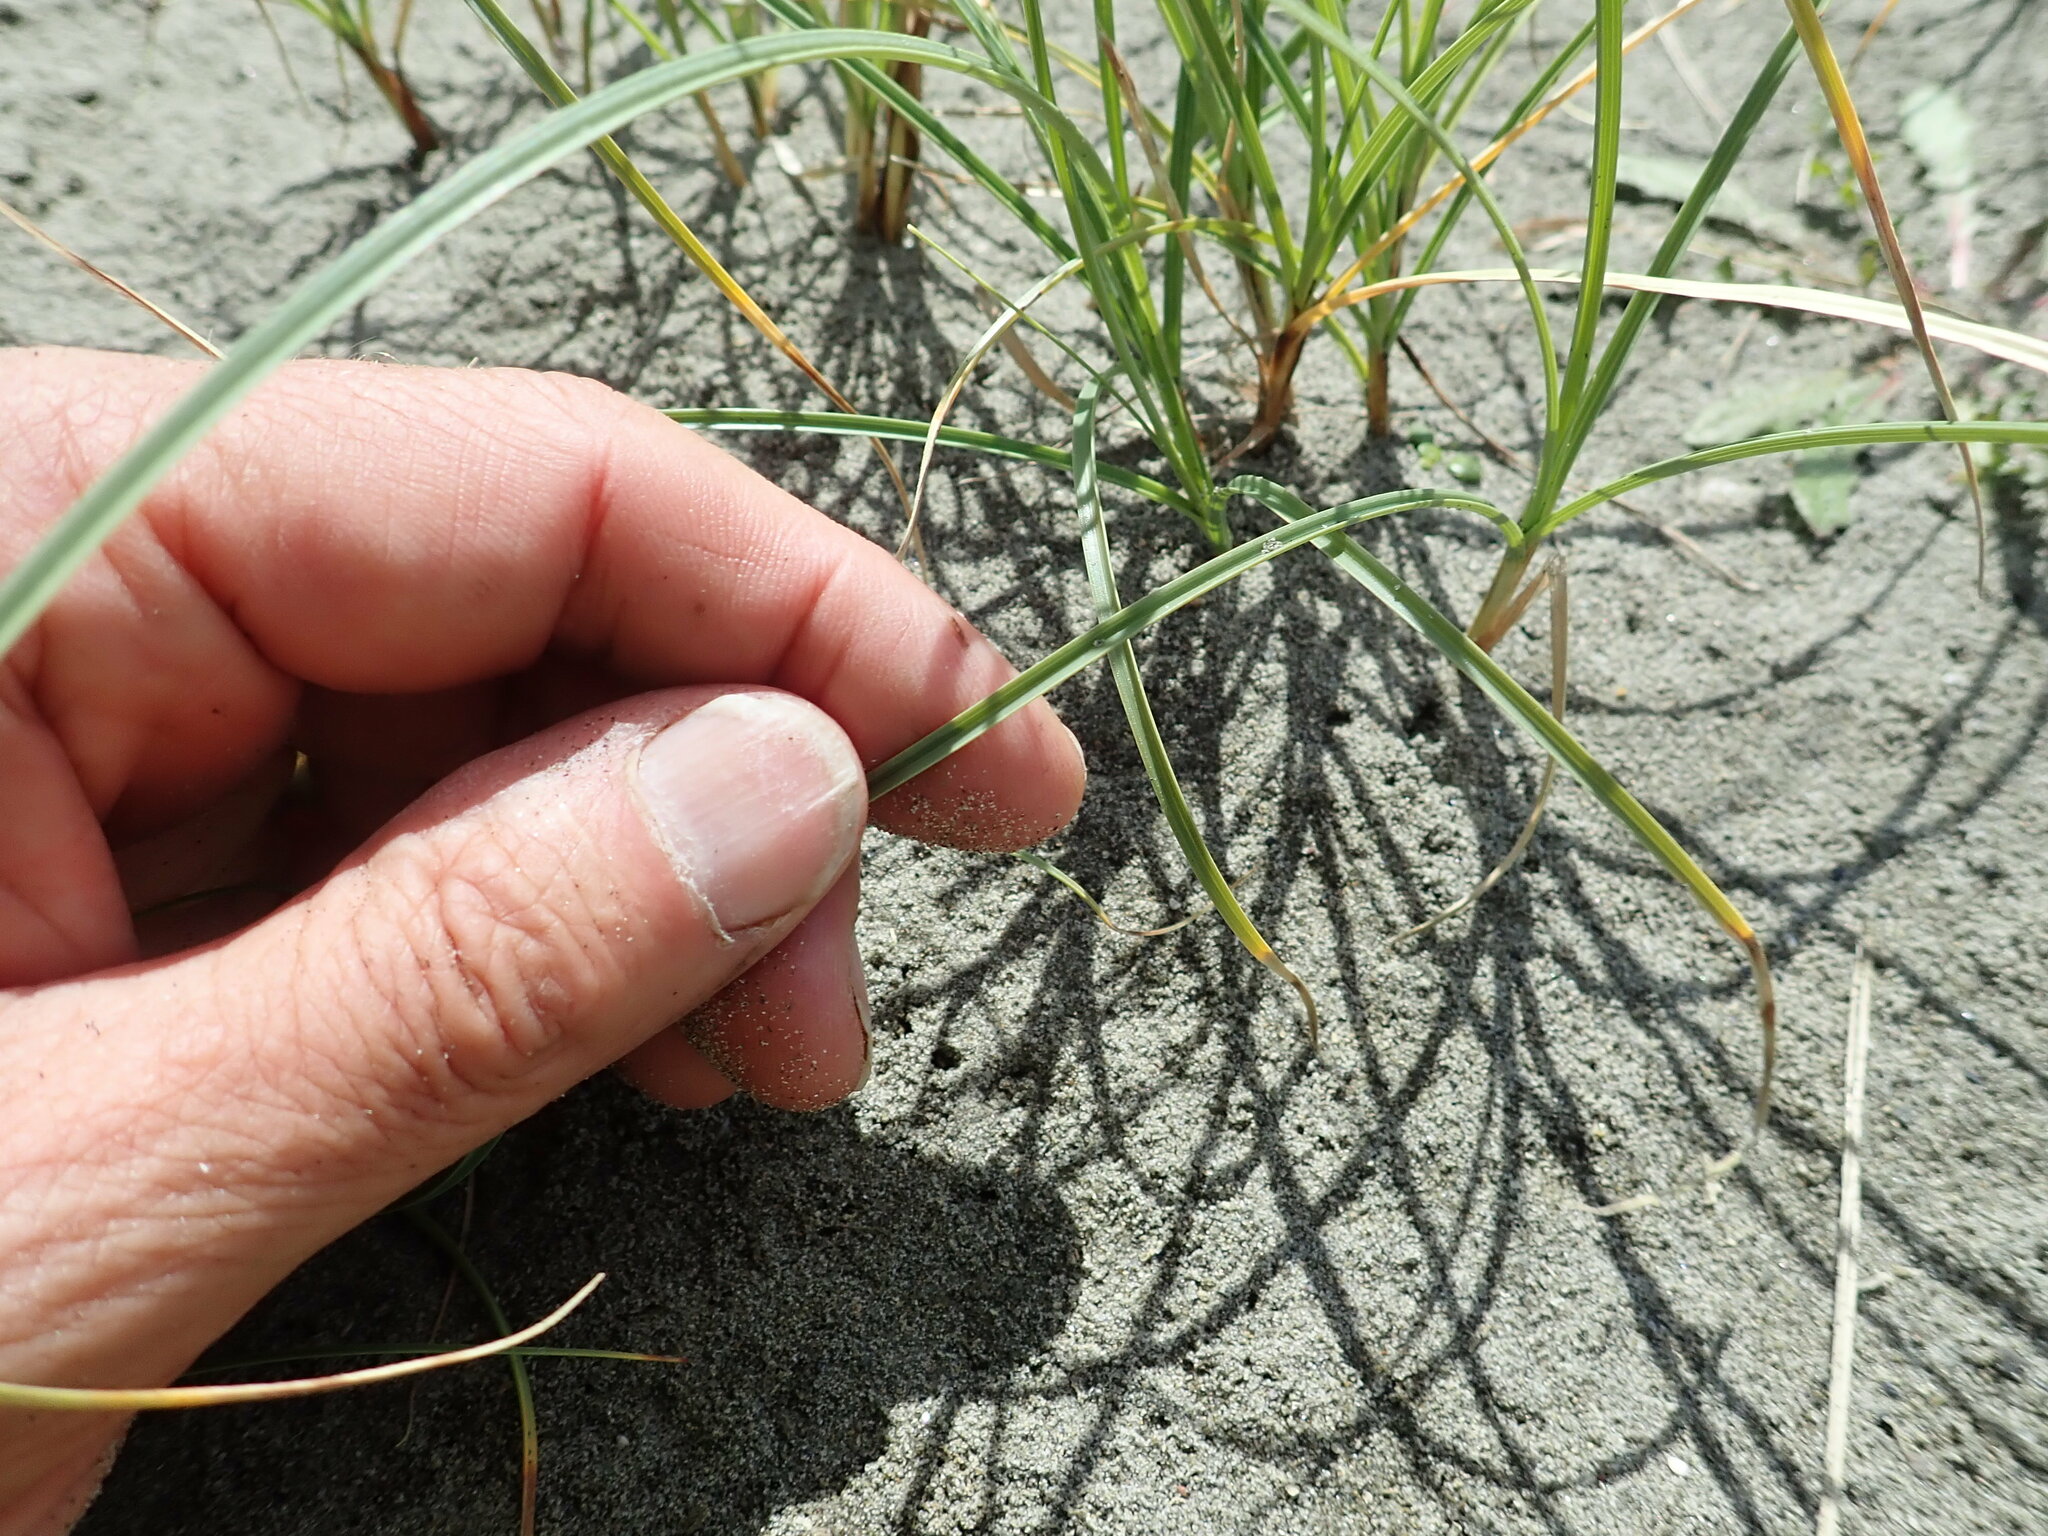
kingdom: Plantae
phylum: Tracheophyta
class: Liliopsida
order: Poales
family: Cyperaceae
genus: Carex
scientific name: Carex pumila
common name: Dwarf sedge
